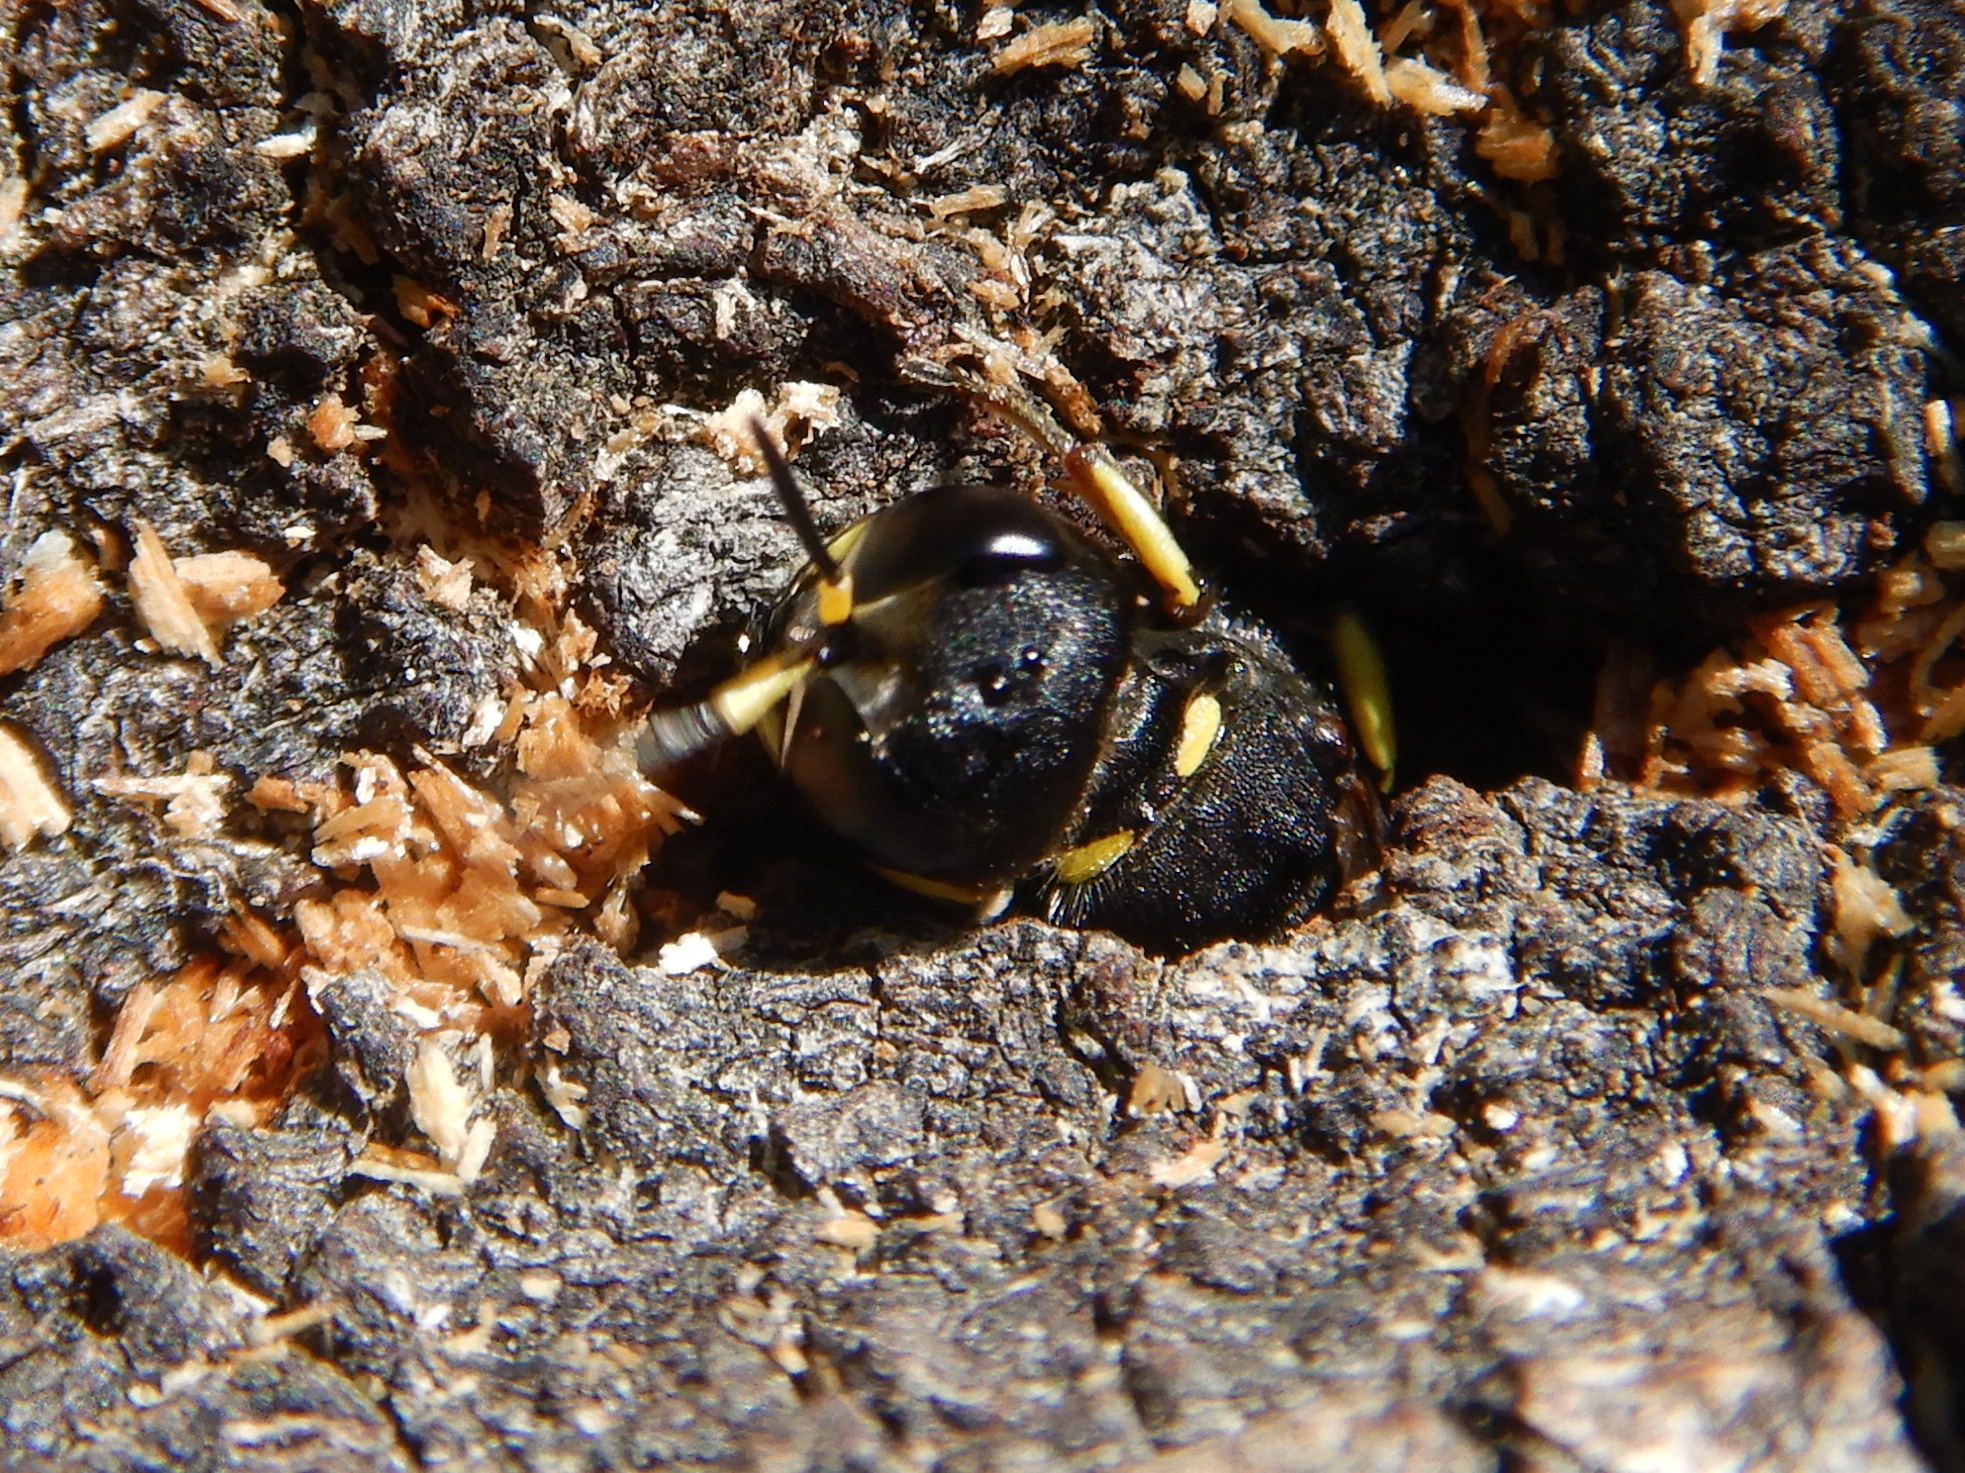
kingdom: Animalia
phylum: Arthropoda
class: Insecta
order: Hymenoptera
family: Crabronidae
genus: Ectemnius
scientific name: Ectemnius continuus
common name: Common ectemnius
